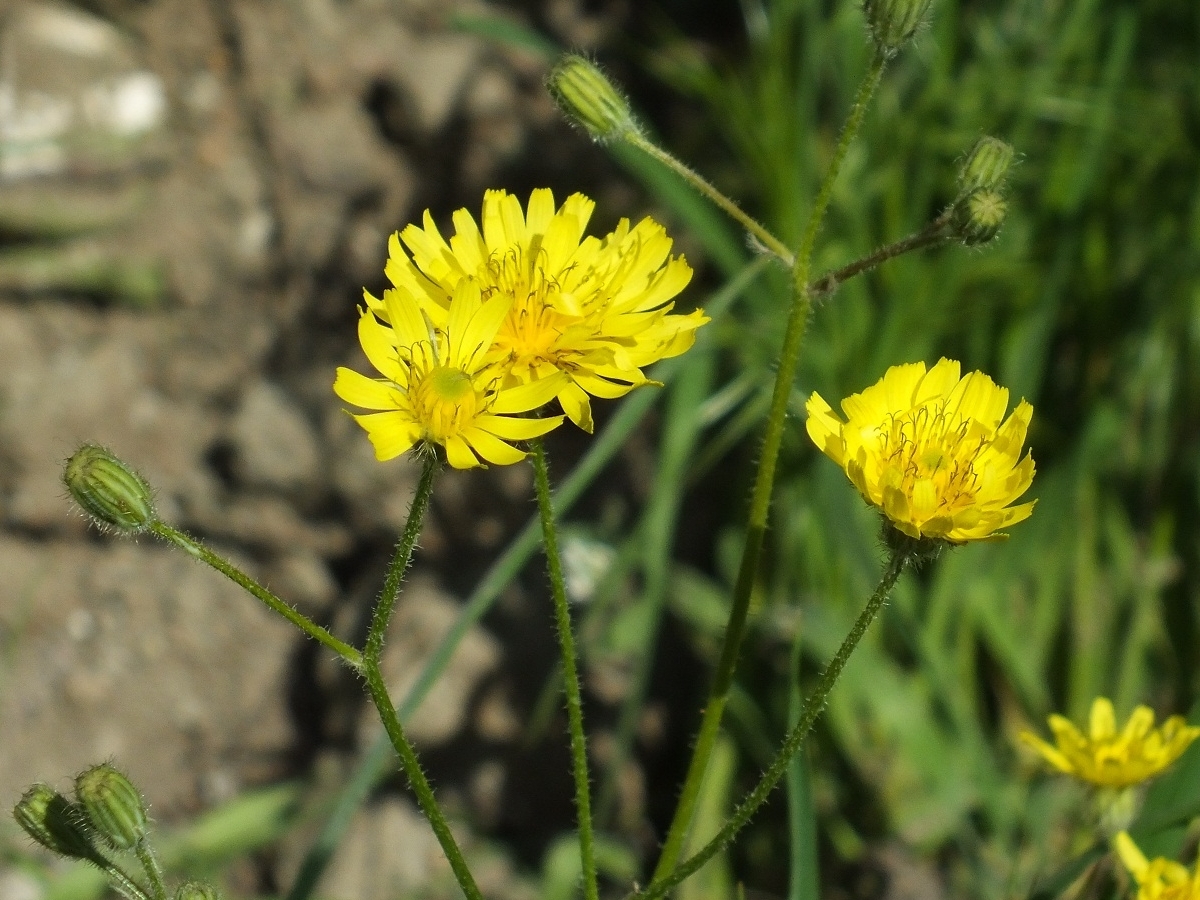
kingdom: Plantae
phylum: Tracheophyta
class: Magnoliopsida
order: Asterales
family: Asteraceae
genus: Crepis
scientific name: Crepis sancta
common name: Hawk's-beard
